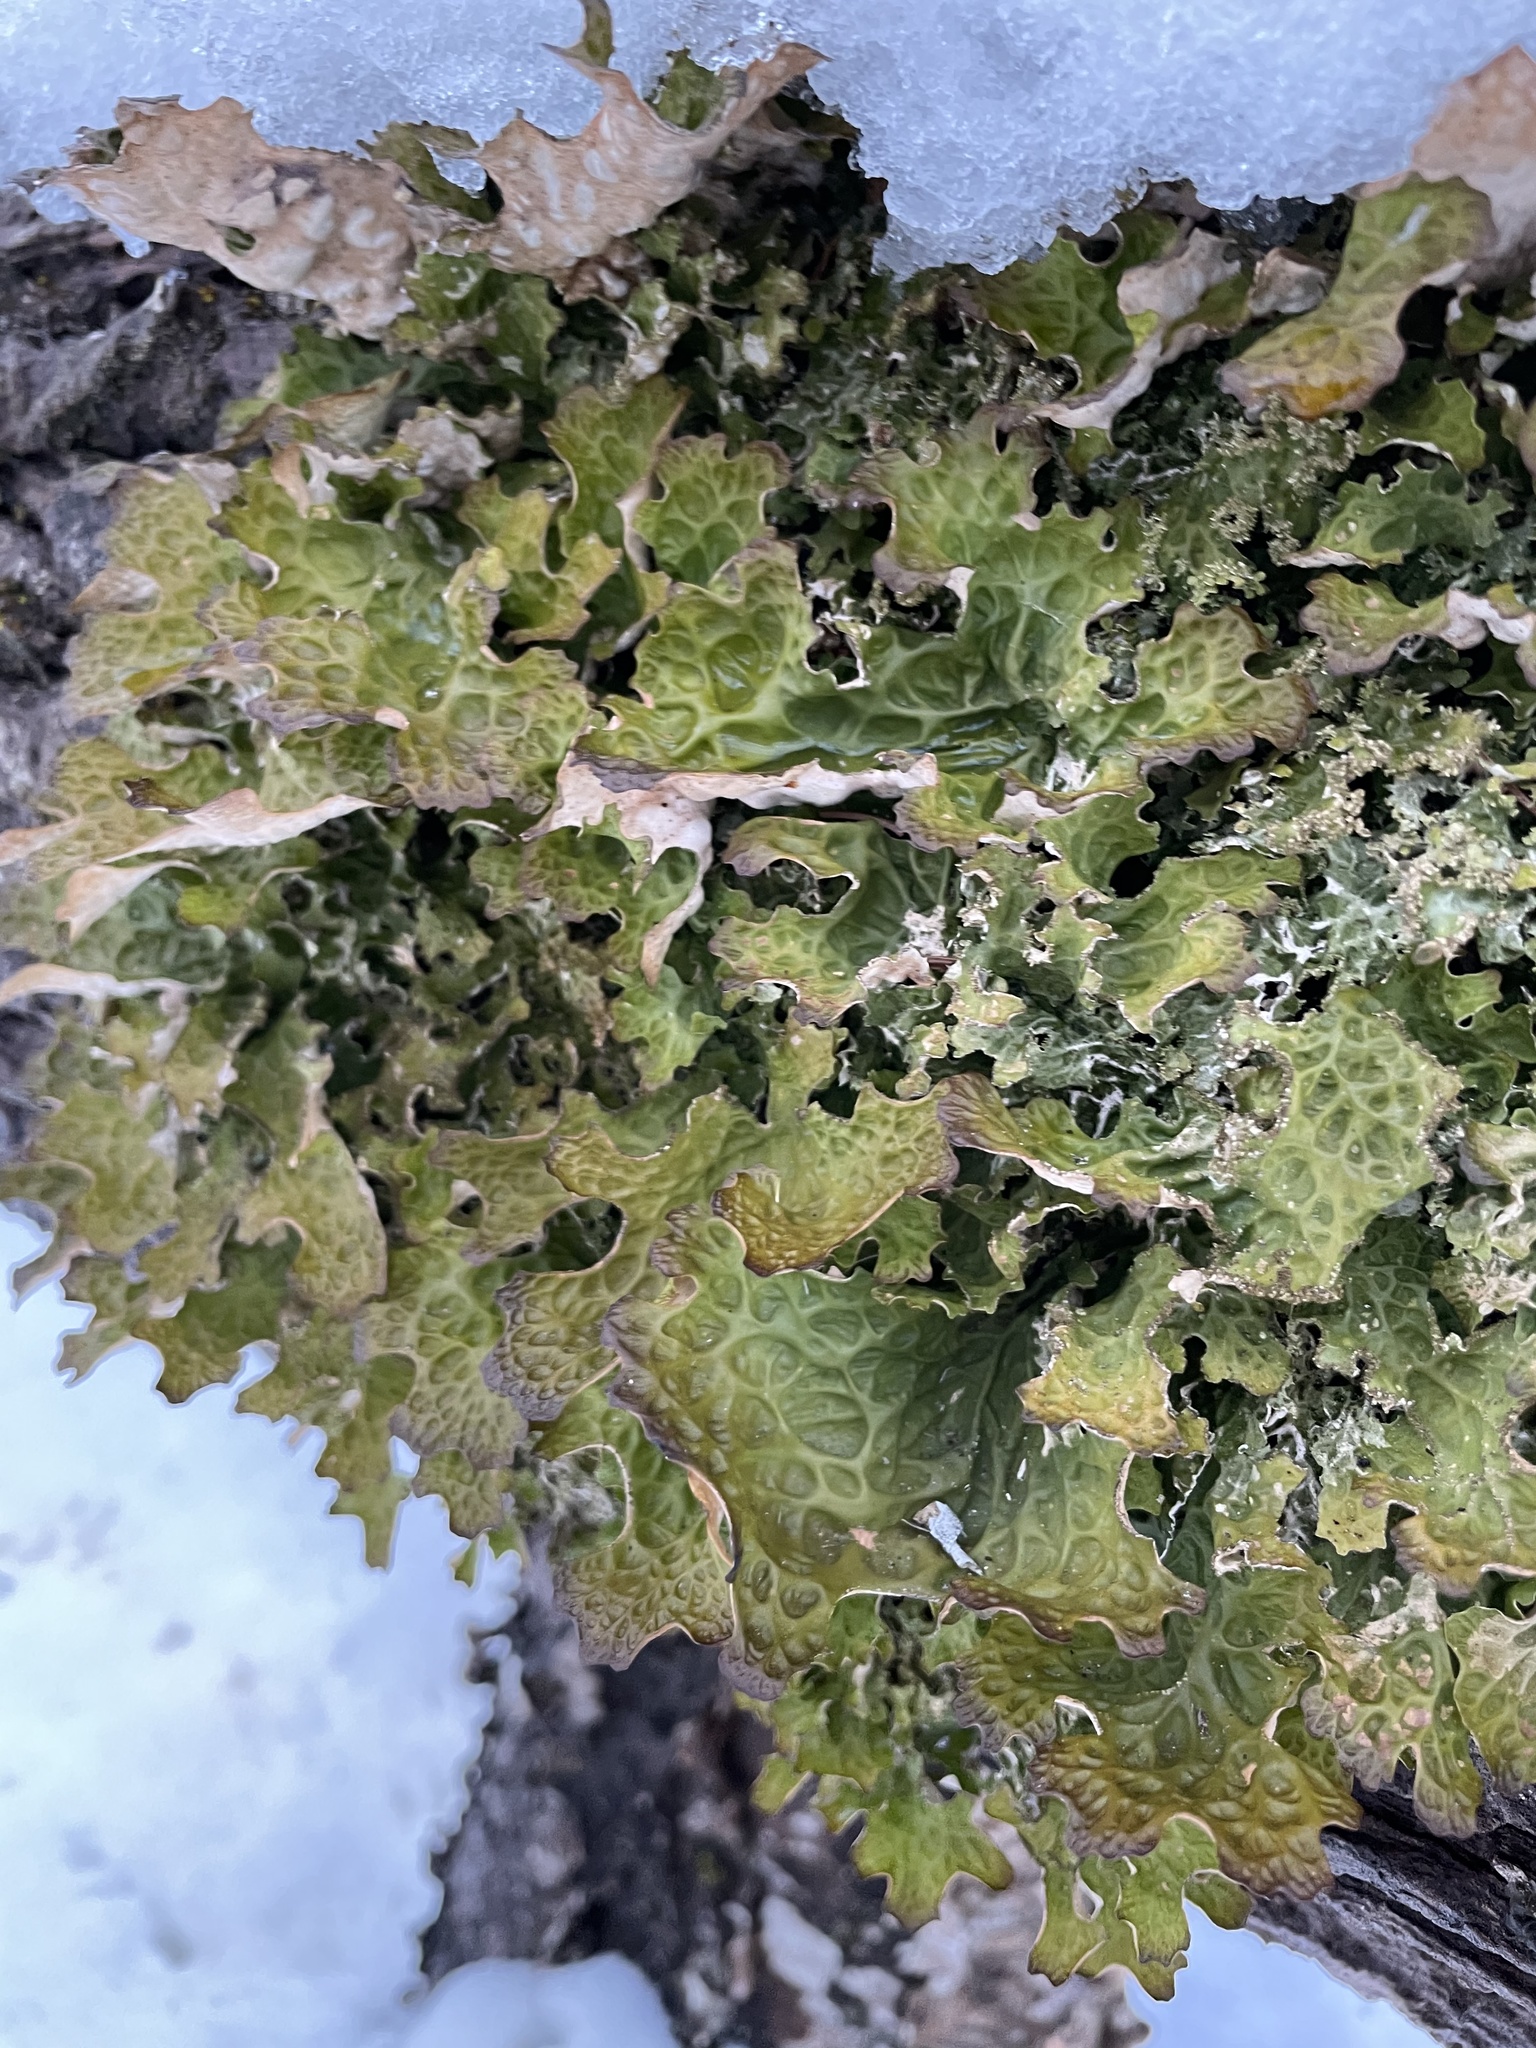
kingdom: Fungi
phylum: Ascomycota
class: Lecanoromycetes
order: Peltigerales
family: Lobariaceae
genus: Lobaria
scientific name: Lobaria pulmonaria
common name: Lungwort
